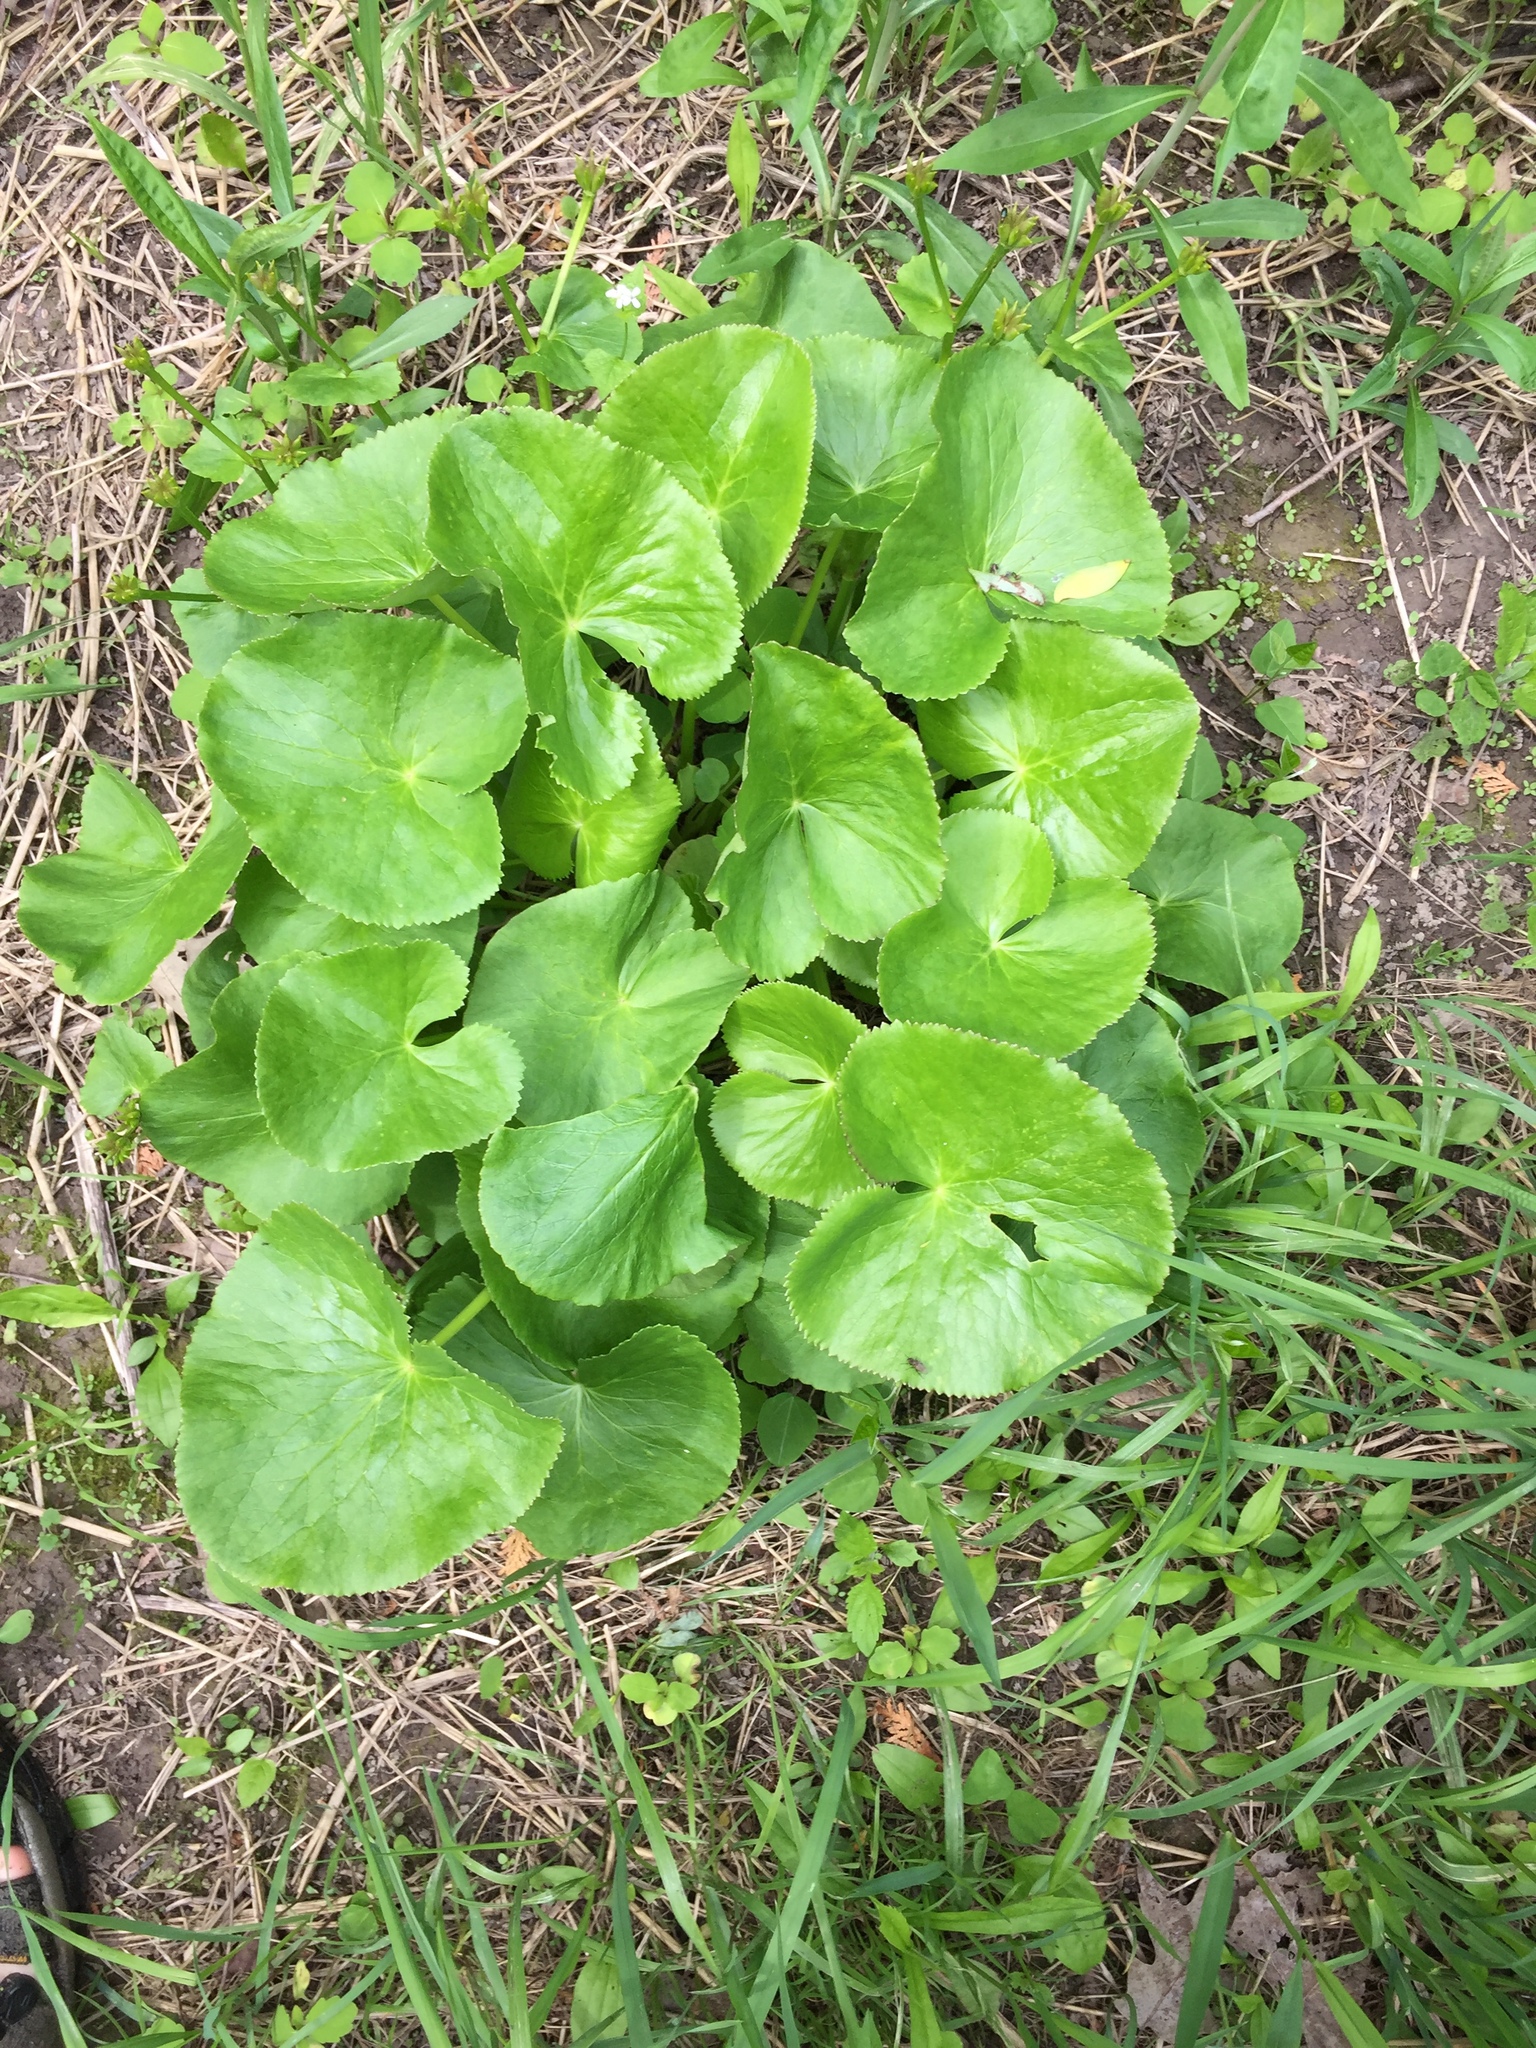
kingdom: Plantae
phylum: Tracheophyta
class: Magnoliopsida
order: Ranunculales
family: Ranunculaceae
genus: Caltha
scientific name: Caltha palustris
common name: Marsh marigold
